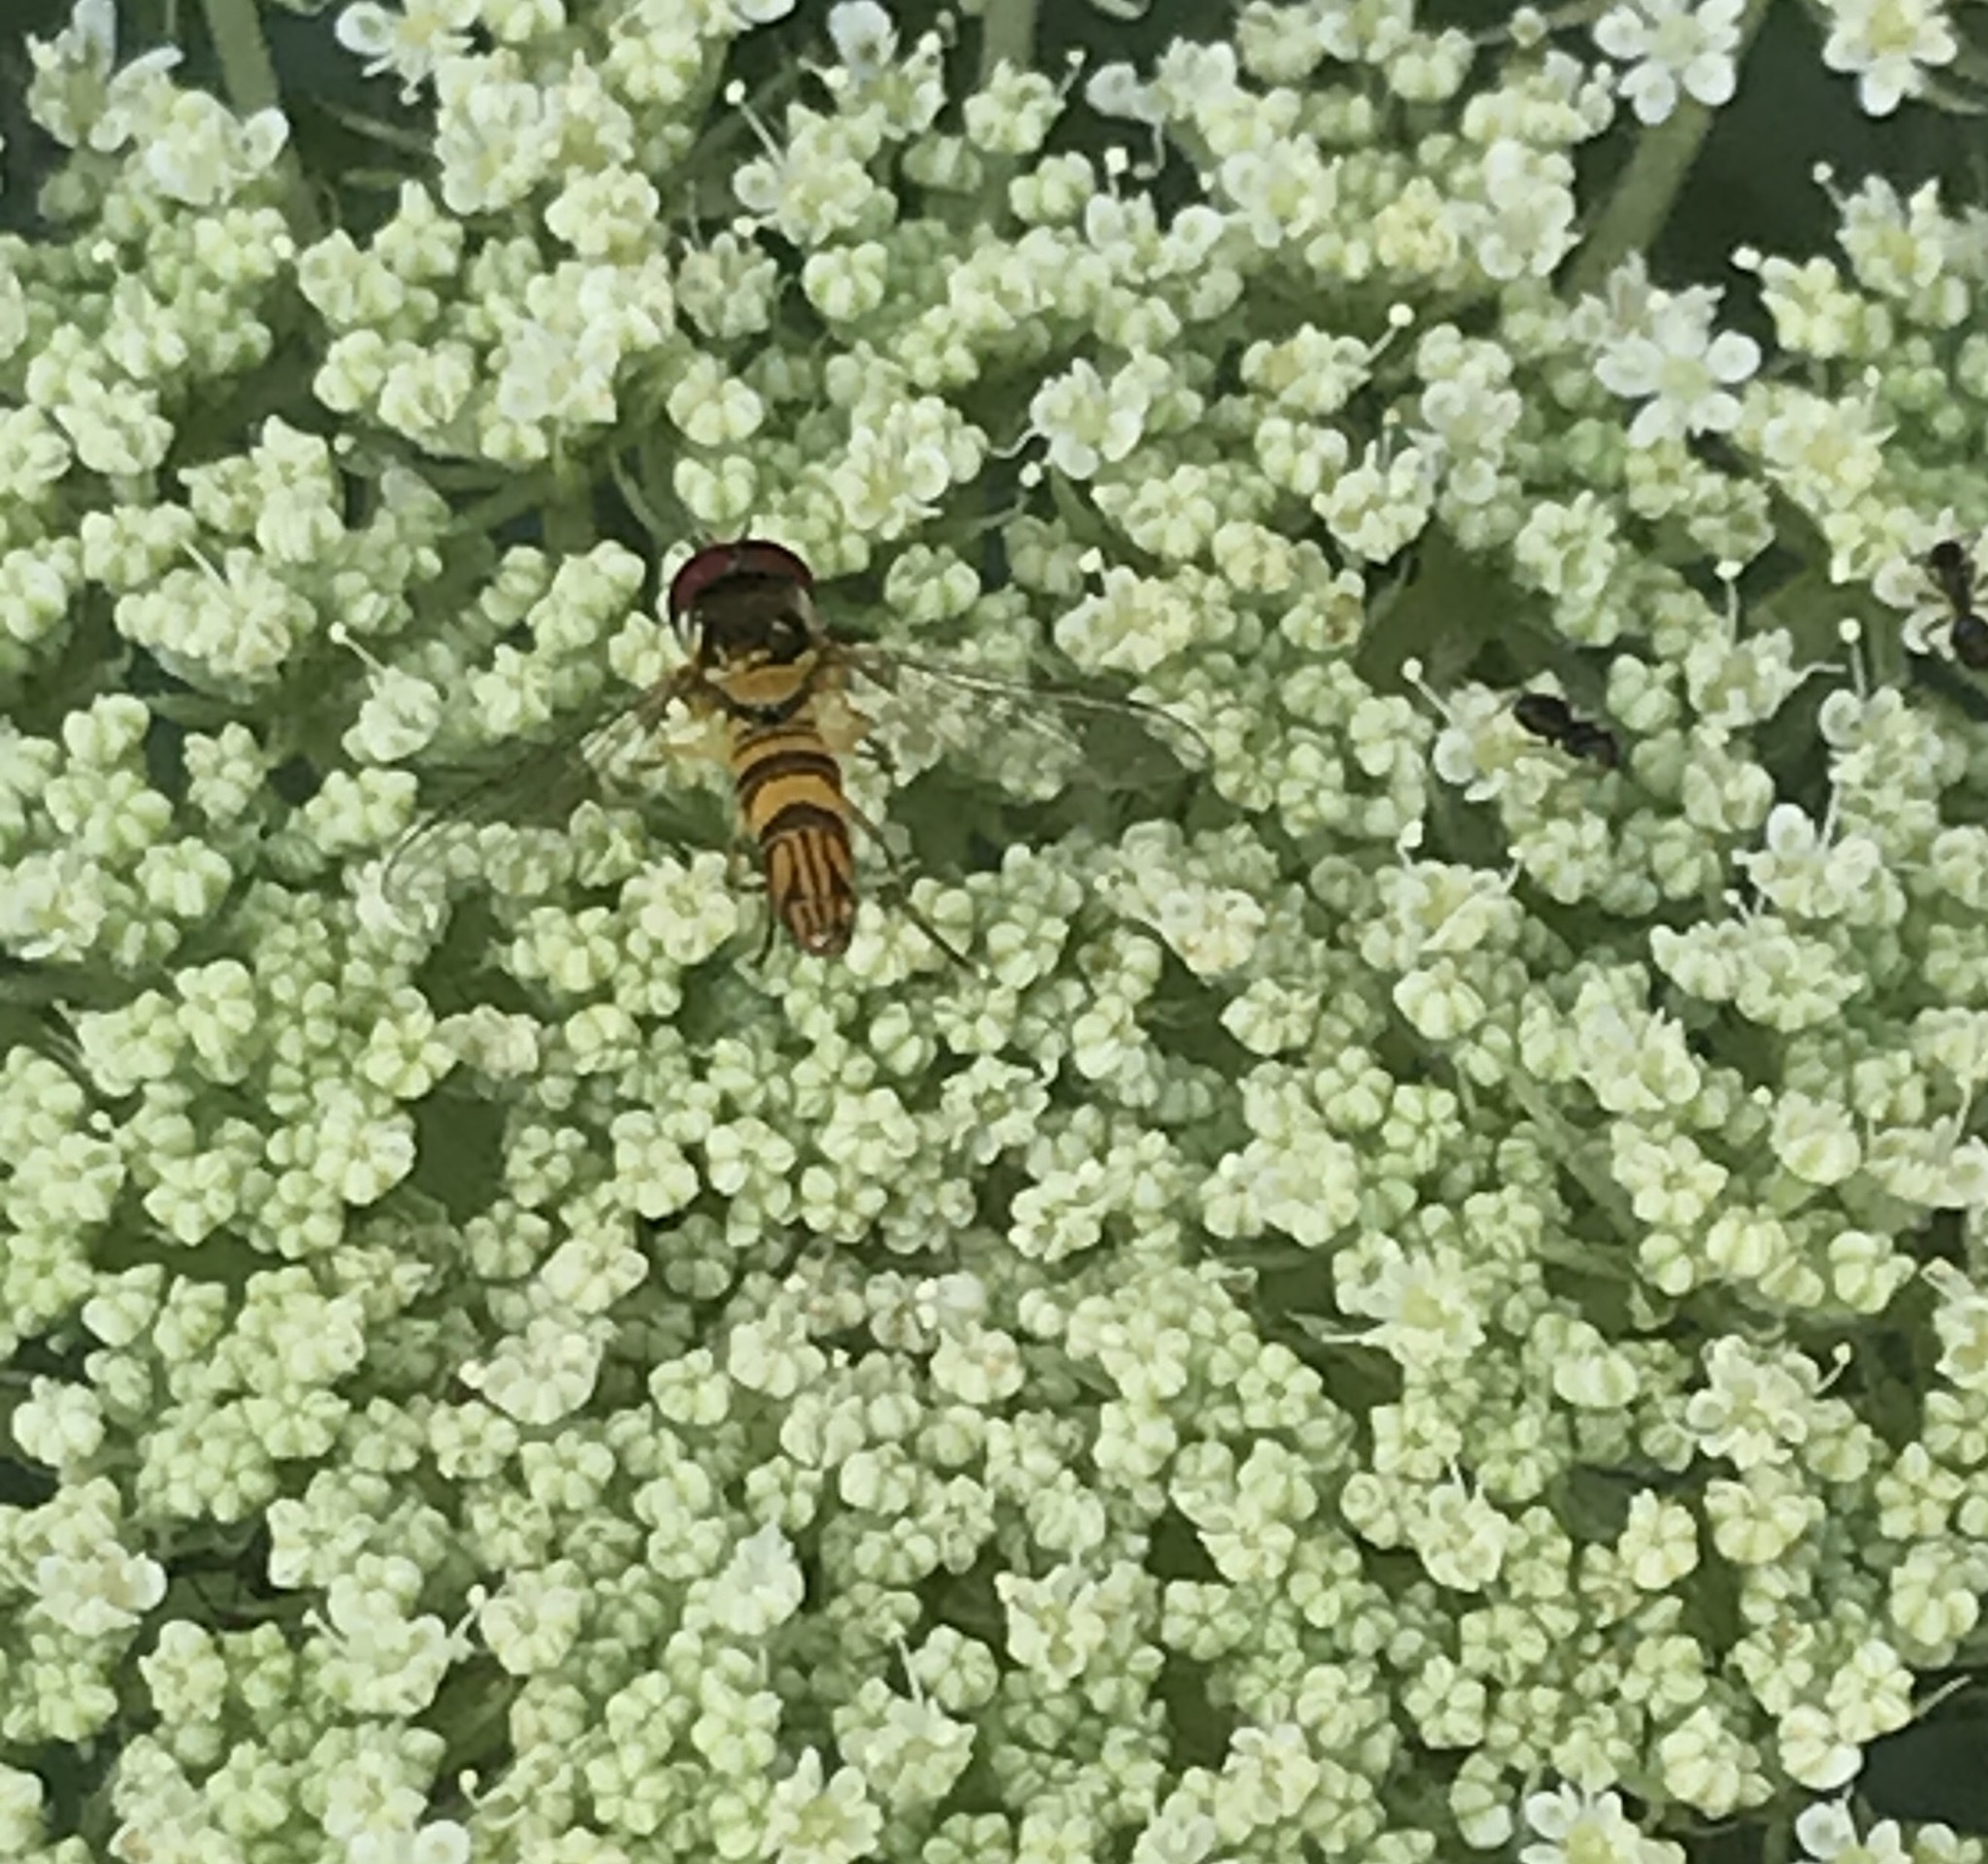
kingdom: Animalia
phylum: Arthropoda
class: Insecta
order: Diptera
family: Syrphidae
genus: Allograpta
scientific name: Allograpta obliqua
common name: Common oblique syrphid
